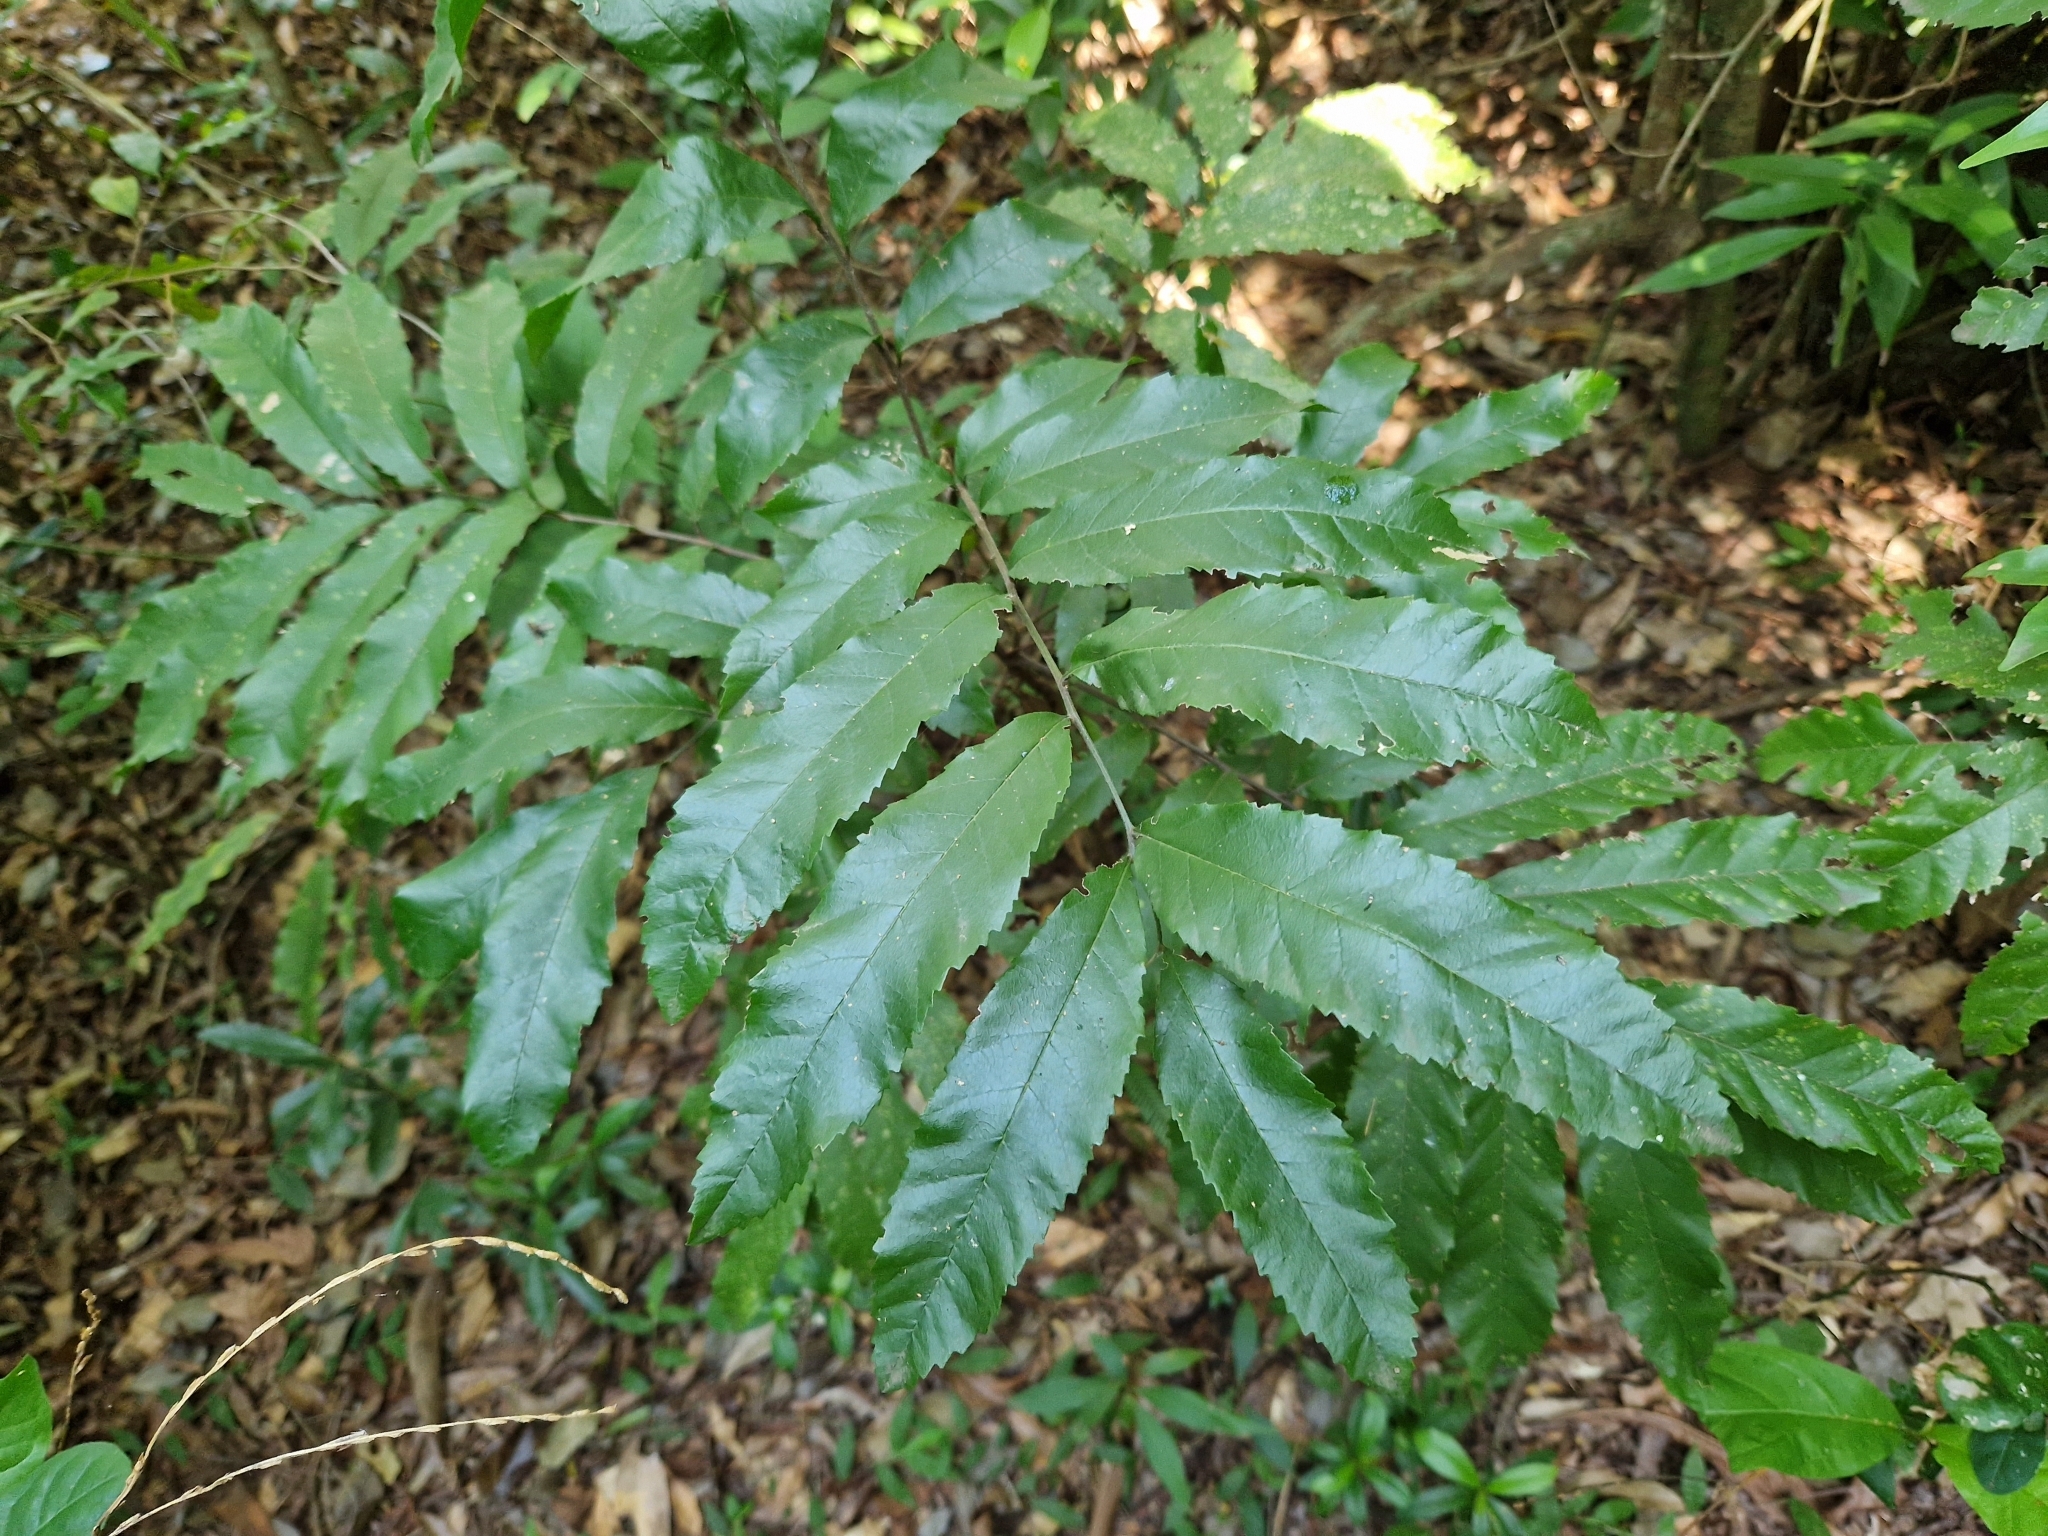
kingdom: Plantae
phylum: Tracheophyta
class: Magnoliopsida
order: Sapindales
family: Sapindaceae
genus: Cupania
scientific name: Cupania vernalis
